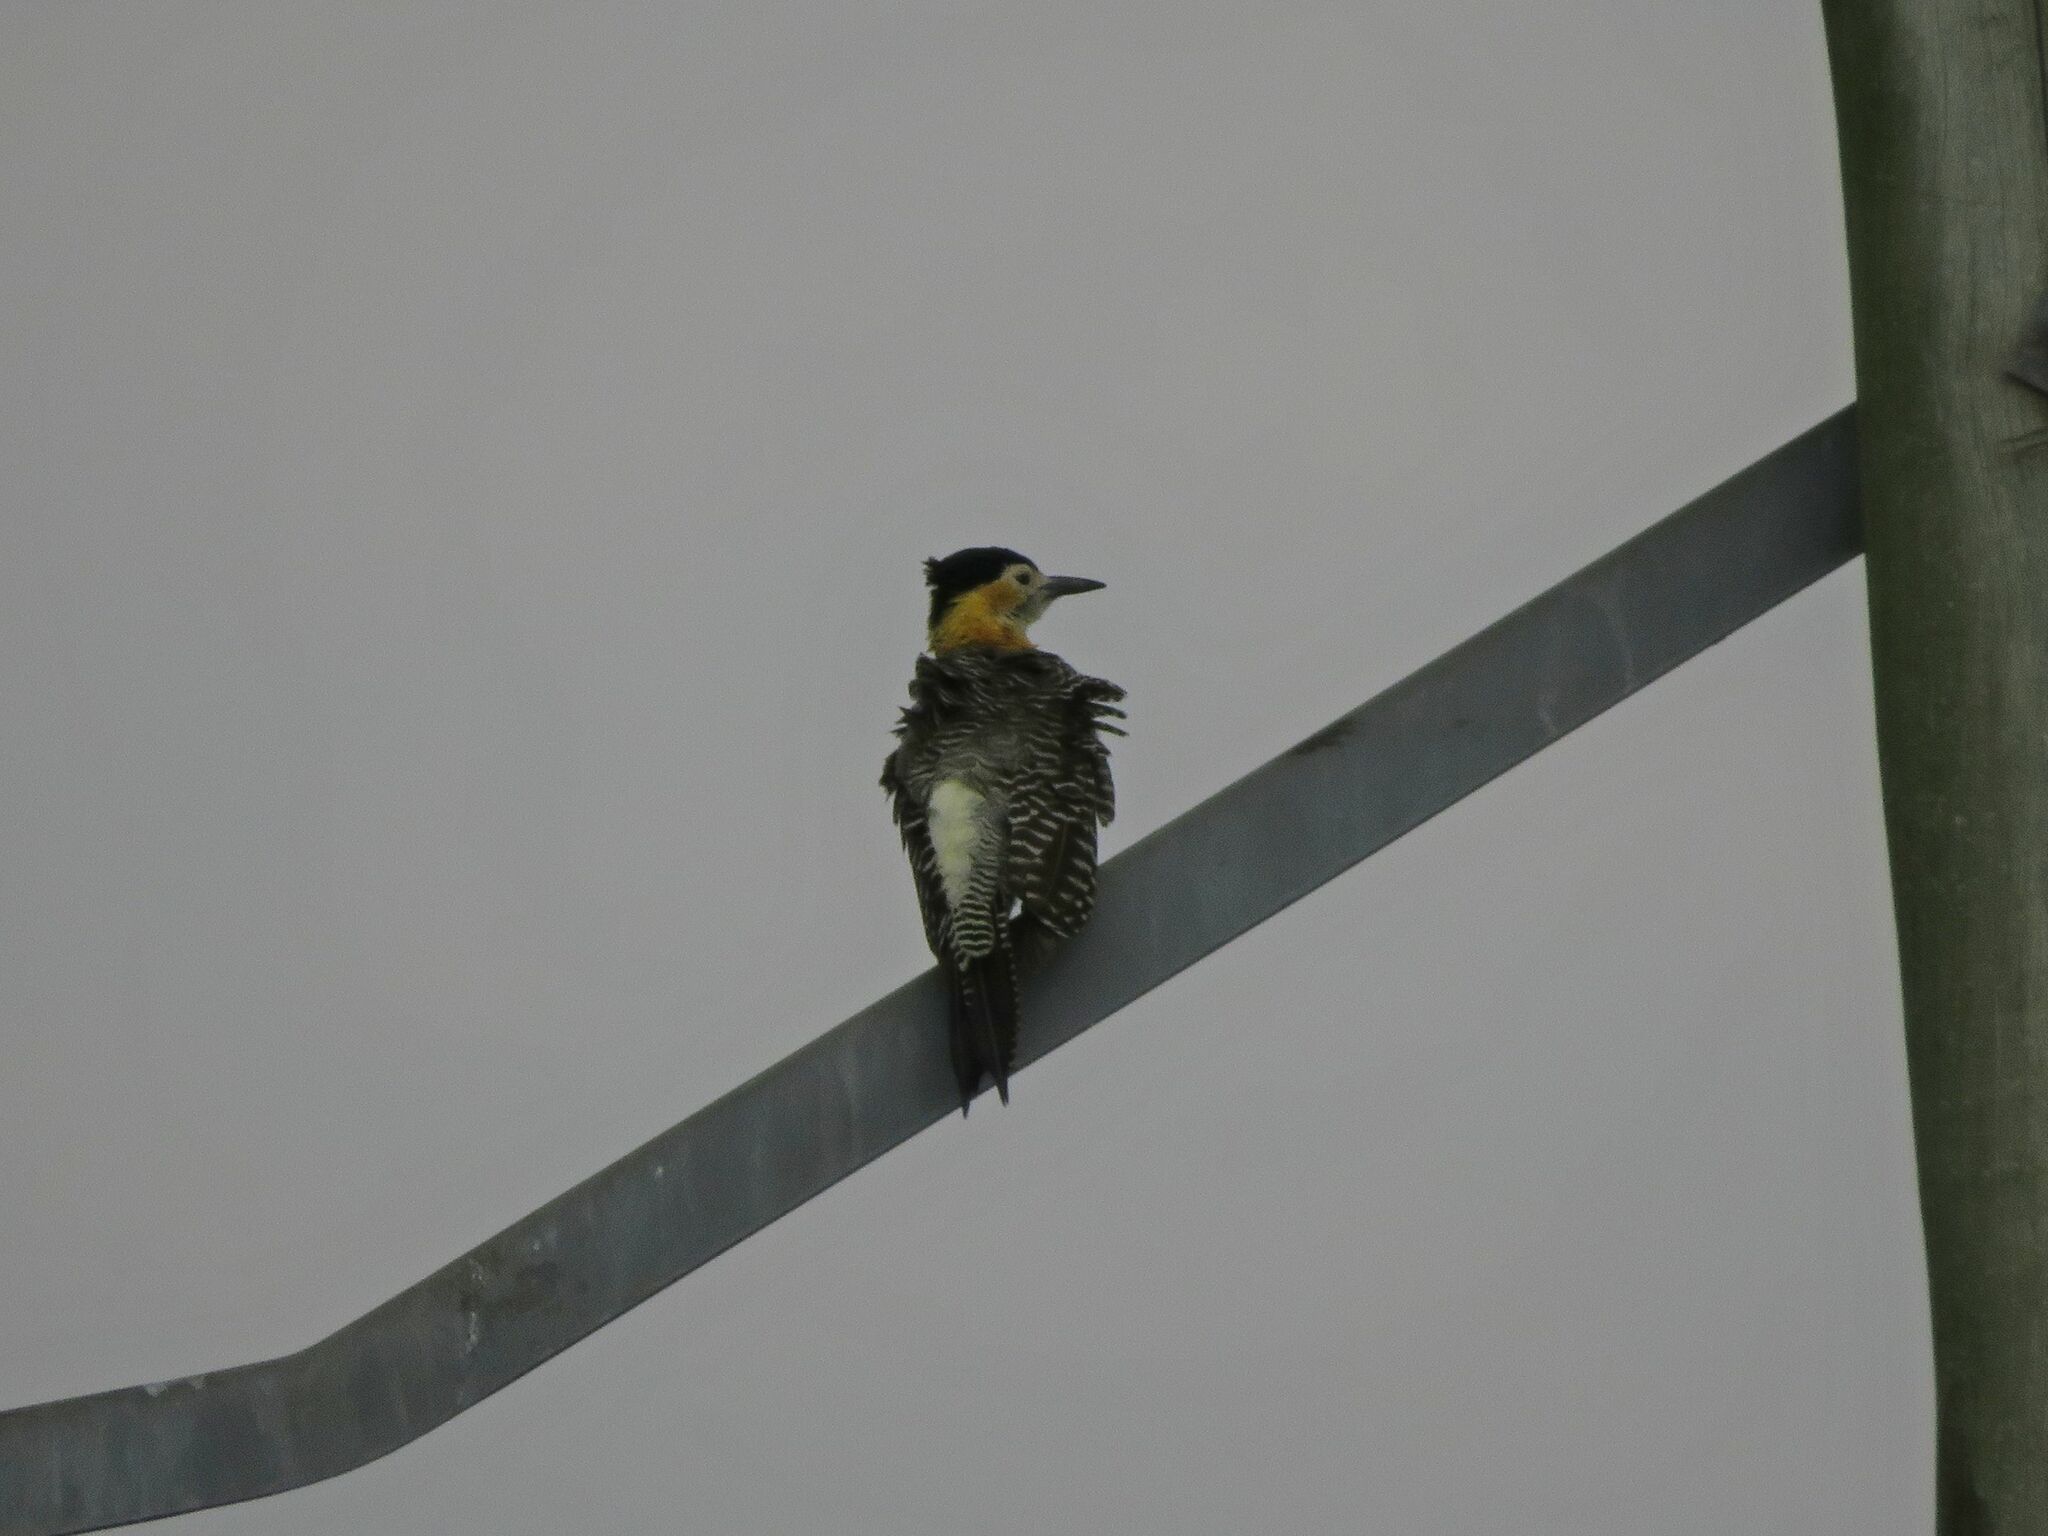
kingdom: Animalia
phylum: Chordata
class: Aves
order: Piciformes
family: Picidae
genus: Colaptes
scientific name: Colaptes campestris
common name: Campo flicker
